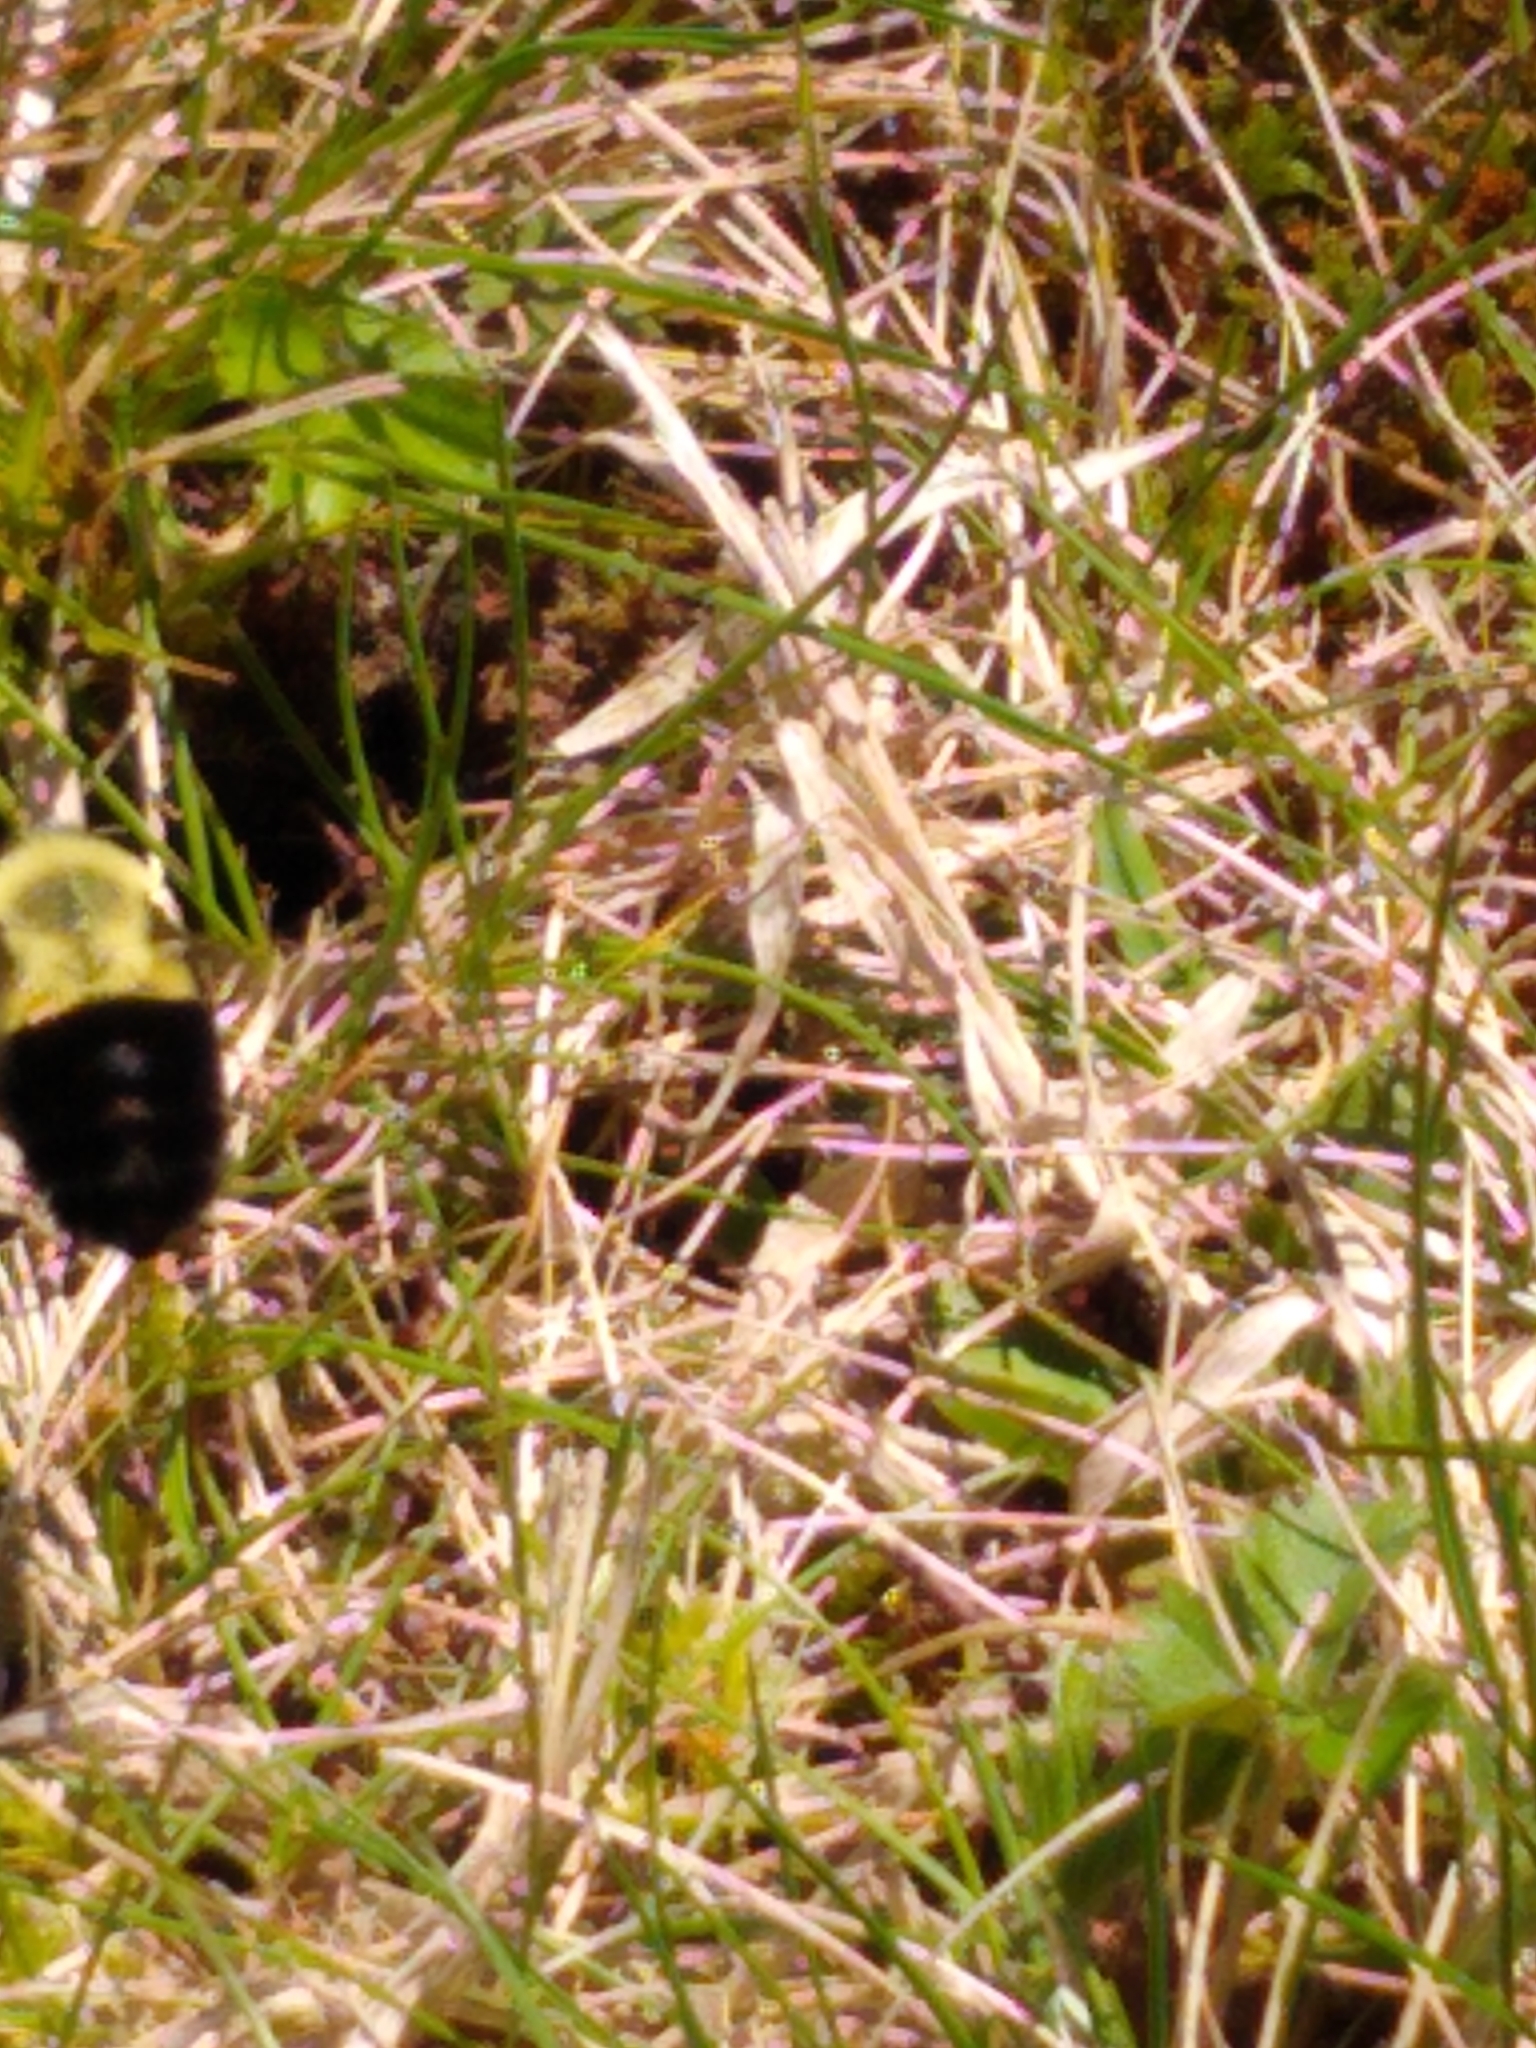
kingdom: Animalia
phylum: Arthropoda
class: Insecta
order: Hymenoptera
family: Apidae
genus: Bombus
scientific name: Bombus impatiens
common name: Common eastern bumble bee
